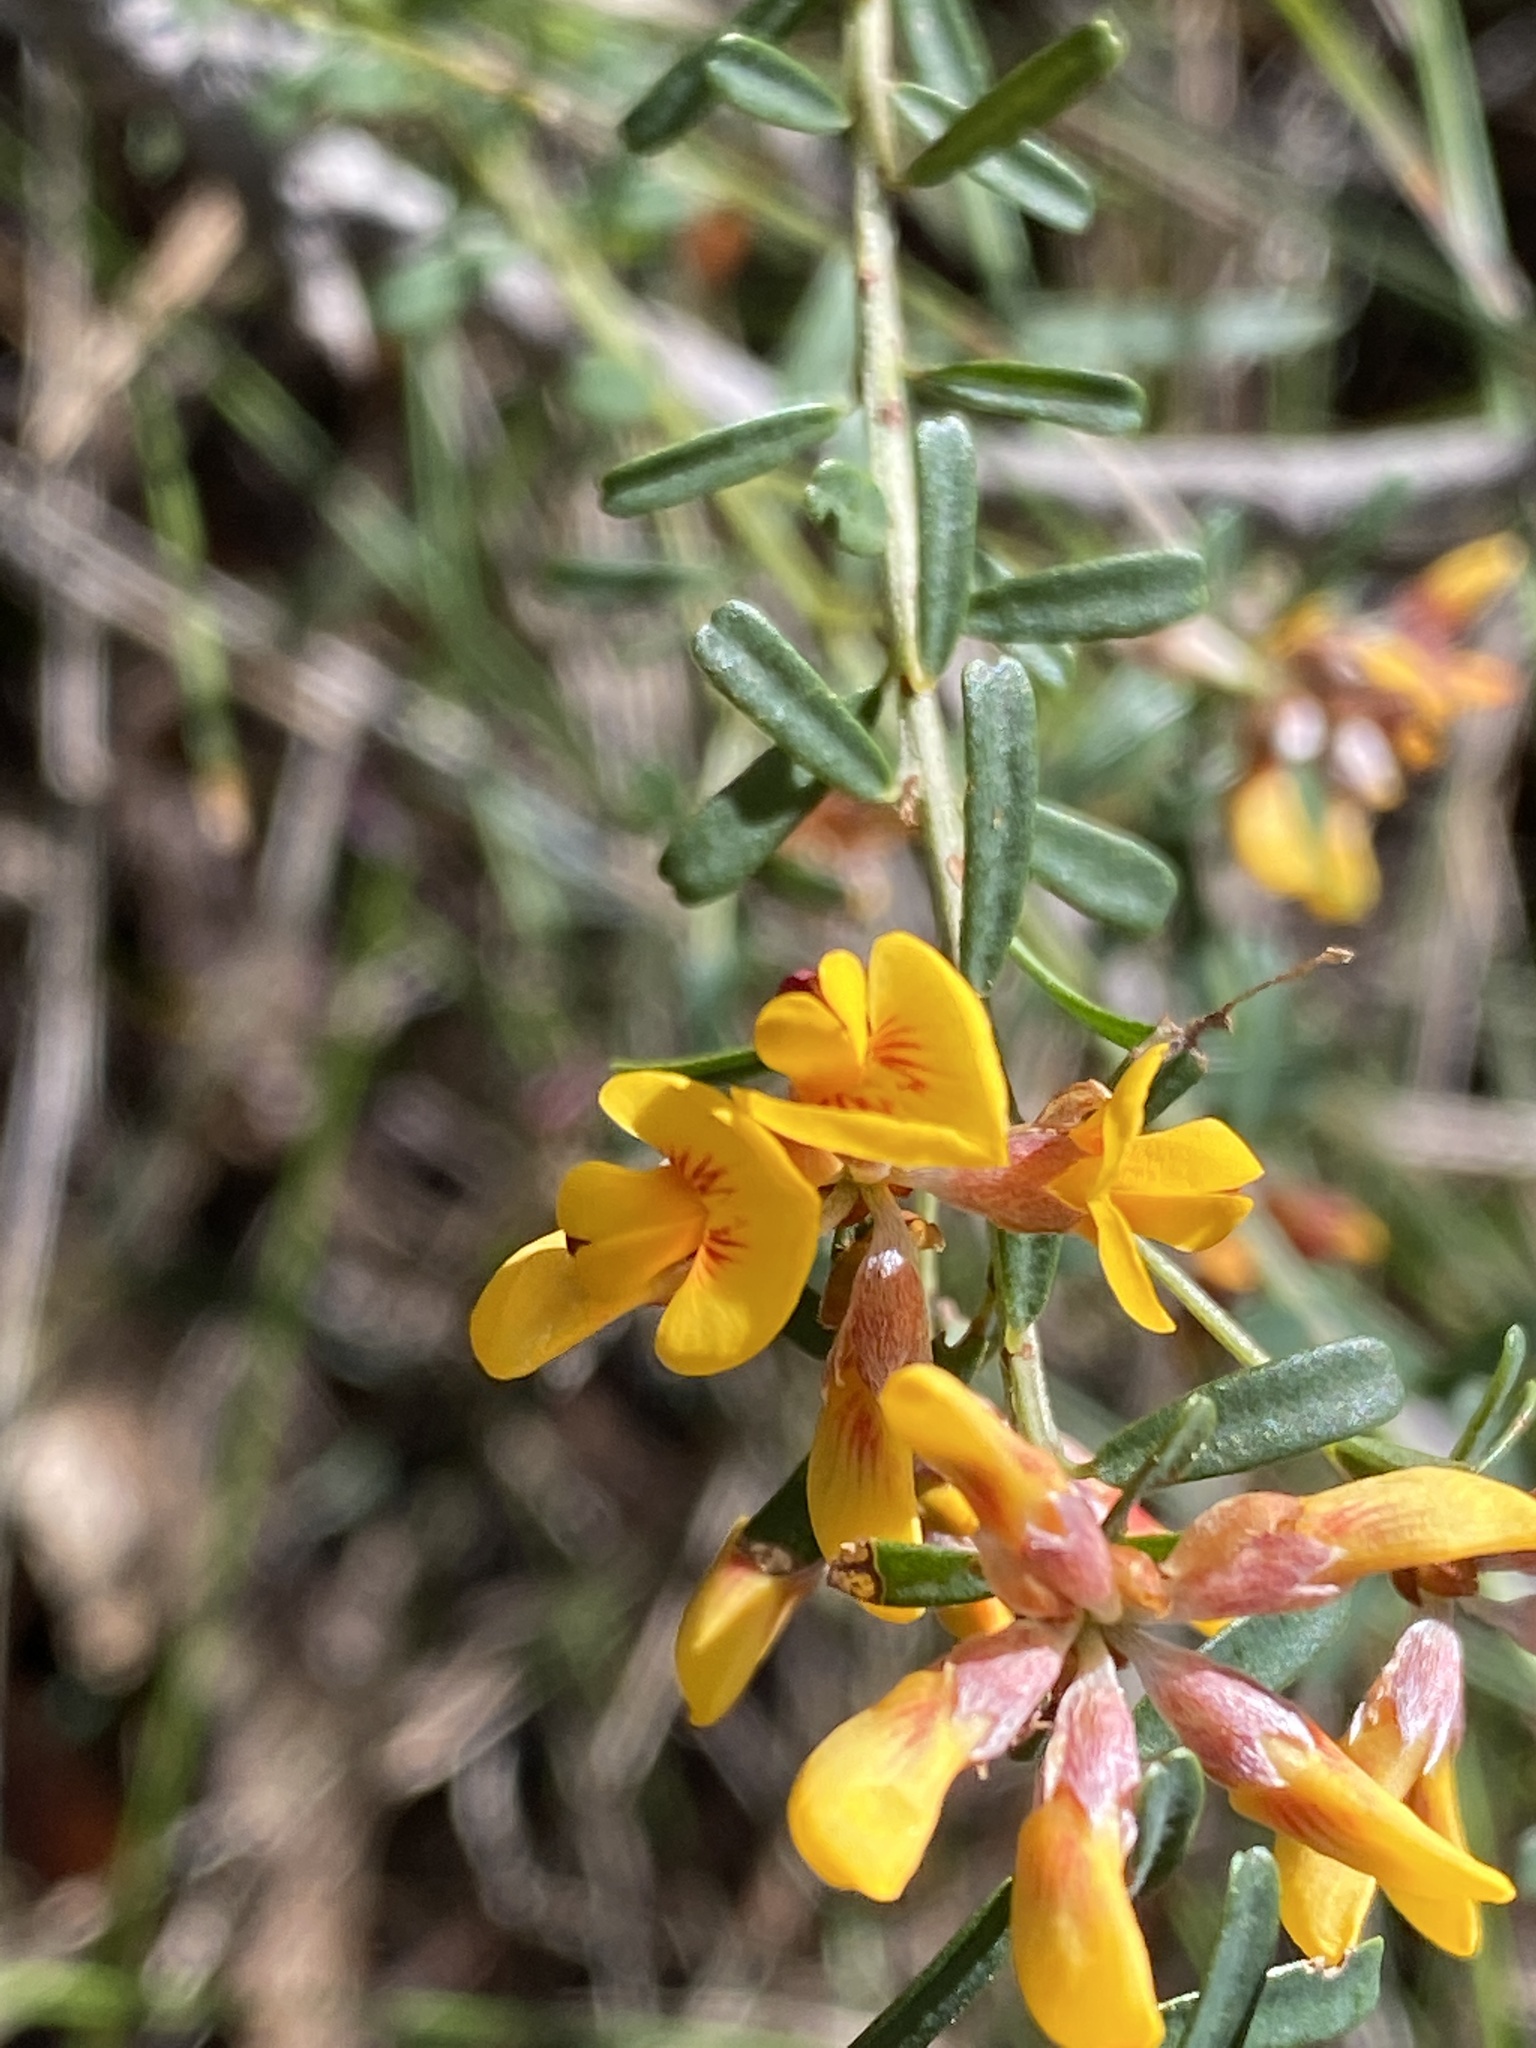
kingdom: Plantae
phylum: Tracheophyta
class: Magnoliopsida
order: Fabales
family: Fabaceae
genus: Pultenaea
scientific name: Pultenaea retusa
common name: Blunt bush-pea
